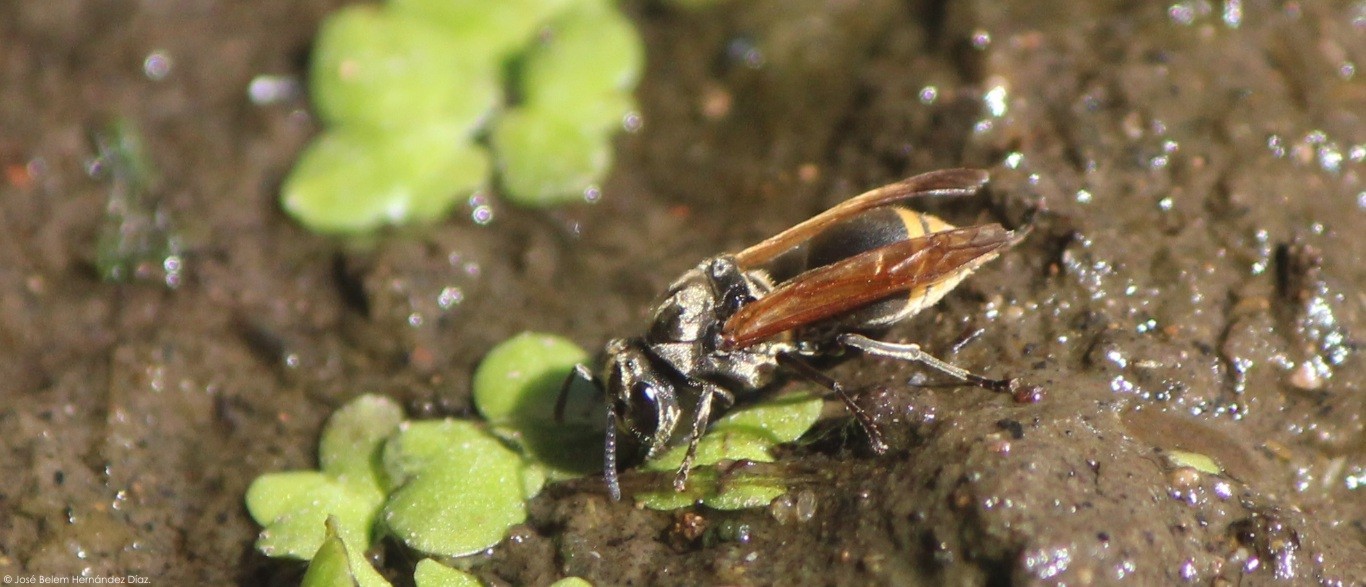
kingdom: Animalia
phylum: Arthropoda
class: Insecta
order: Hymenoptera
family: Vespidae
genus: Brachygastra
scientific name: Brachygastra mellifica
